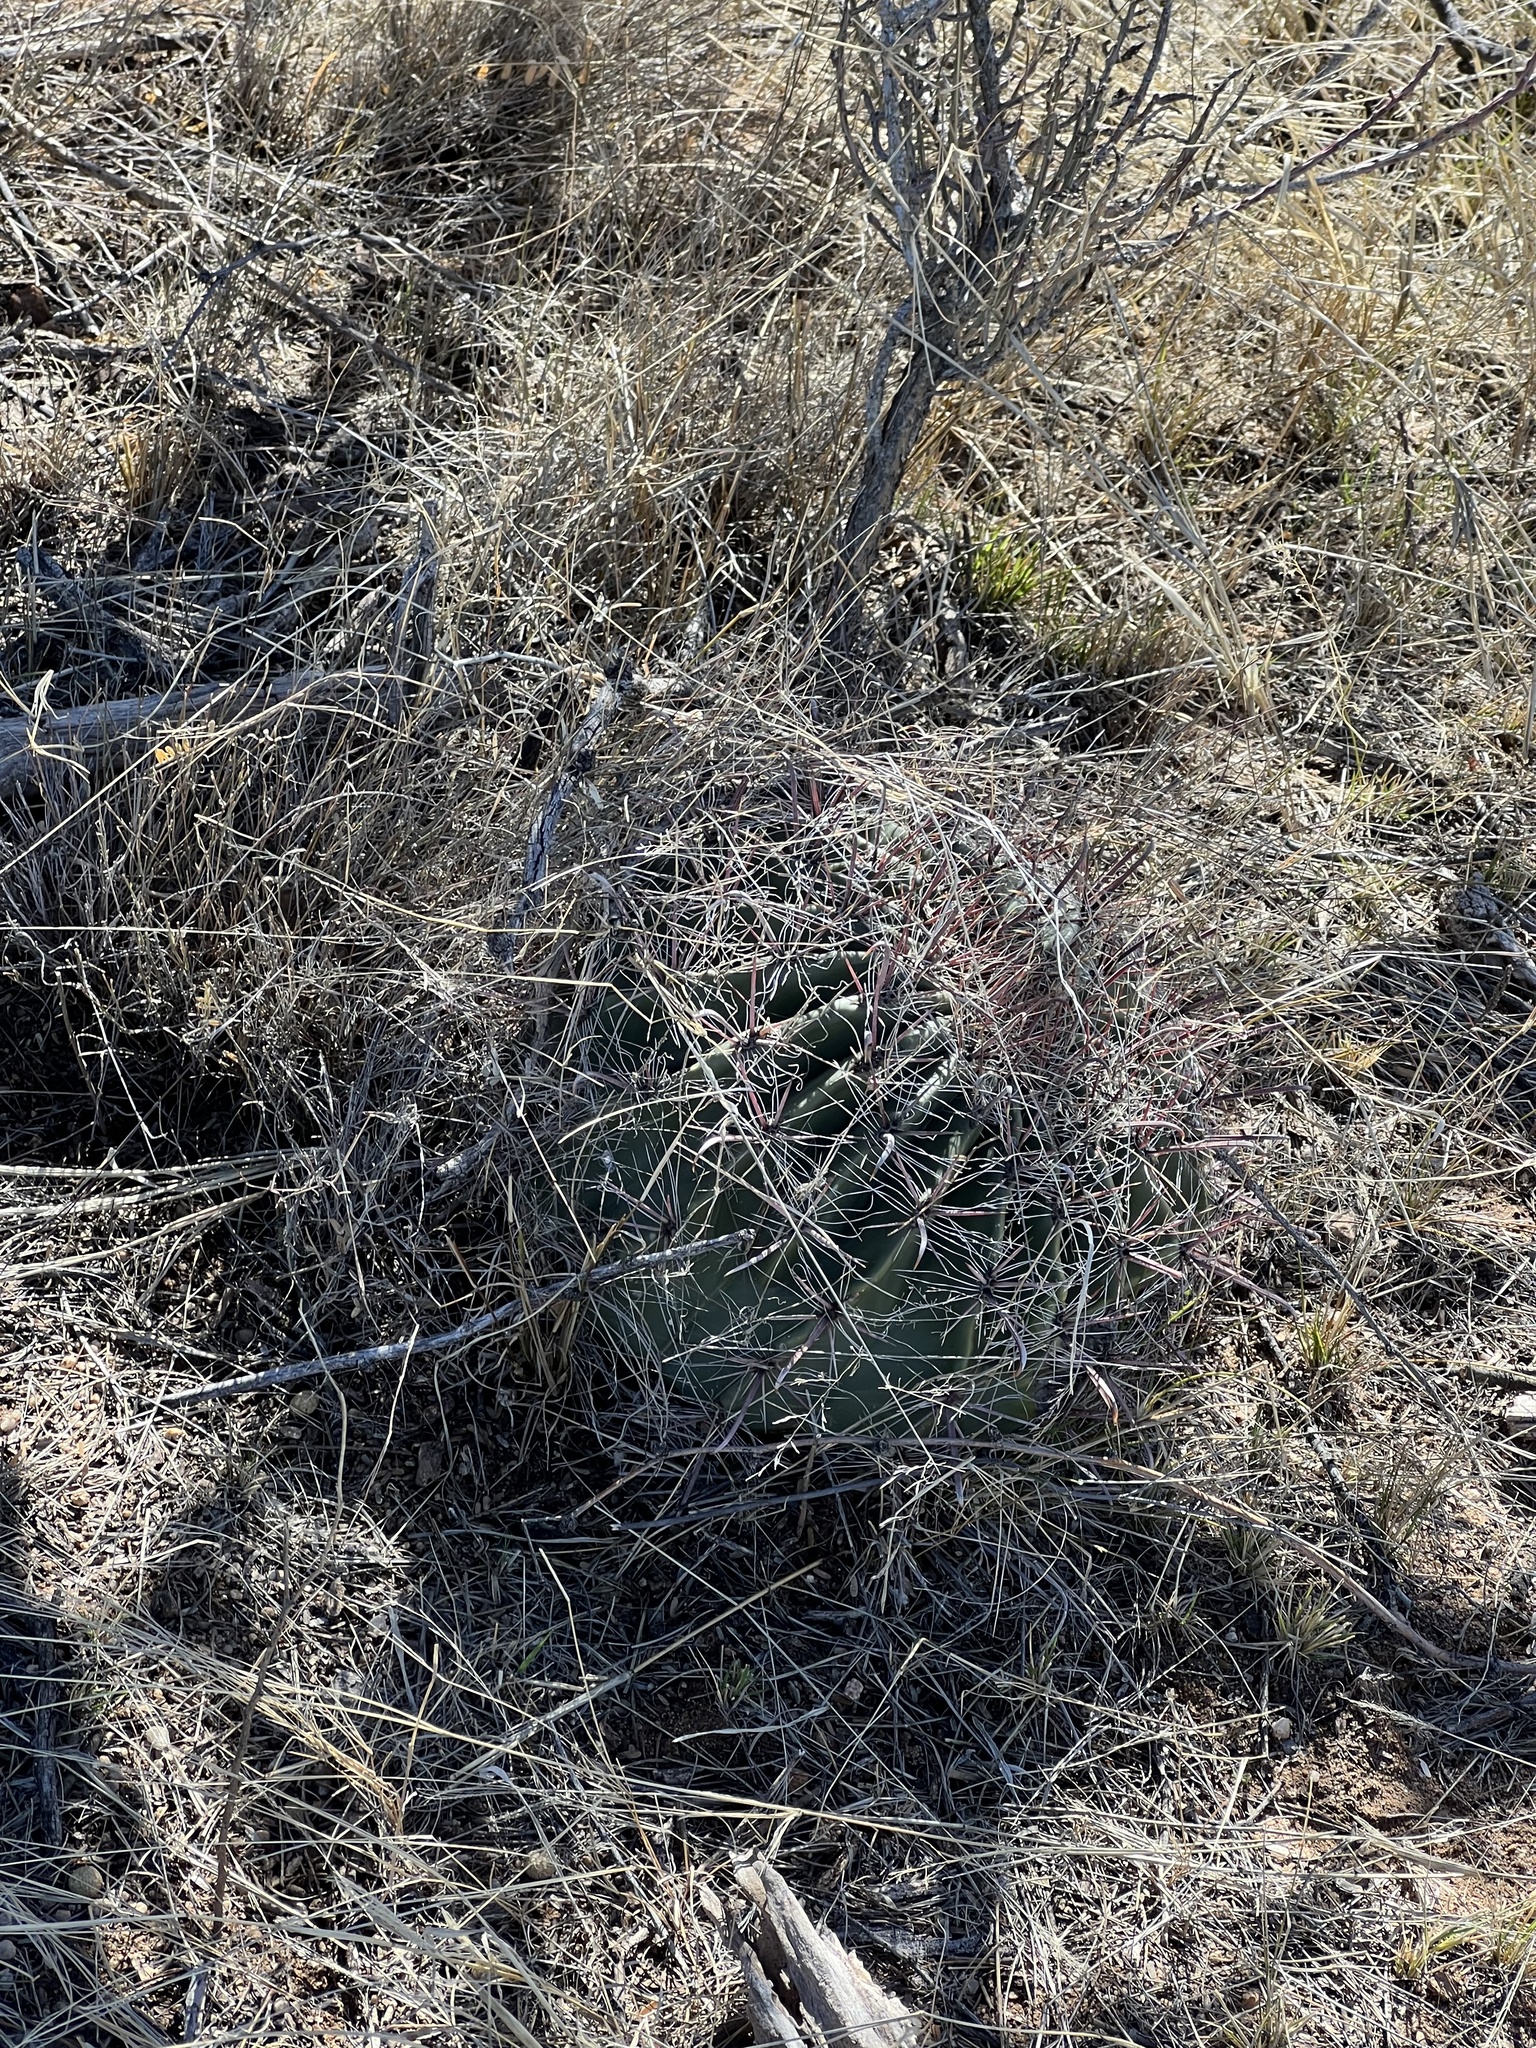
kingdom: Plantae
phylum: Tracheophyta
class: Magnoliopsida
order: Caryophyllales
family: Cactaceae
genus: Ferocactus
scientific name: Ferocactus wislizeni
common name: Candy barrel cactus
